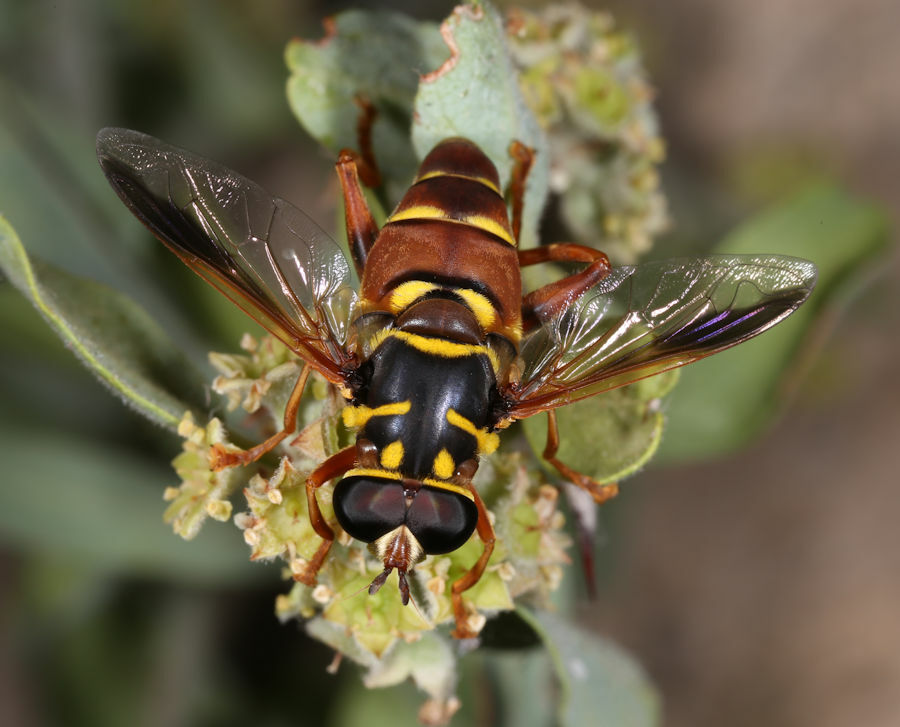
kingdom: Animalia
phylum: Arthropoda
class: Insecta
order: Diptera
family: Syrphidae
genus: Meromacrus
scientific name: Meromacrus gloriosus
